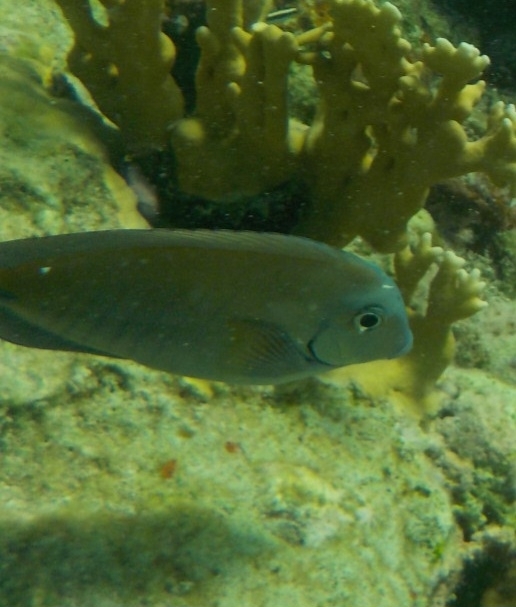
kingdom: Animalia
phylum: Chordata
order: Perciformes
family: Acanthuridae
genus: Acanthurus
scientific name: Acanthurus chirurgus
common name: Doctorfish
